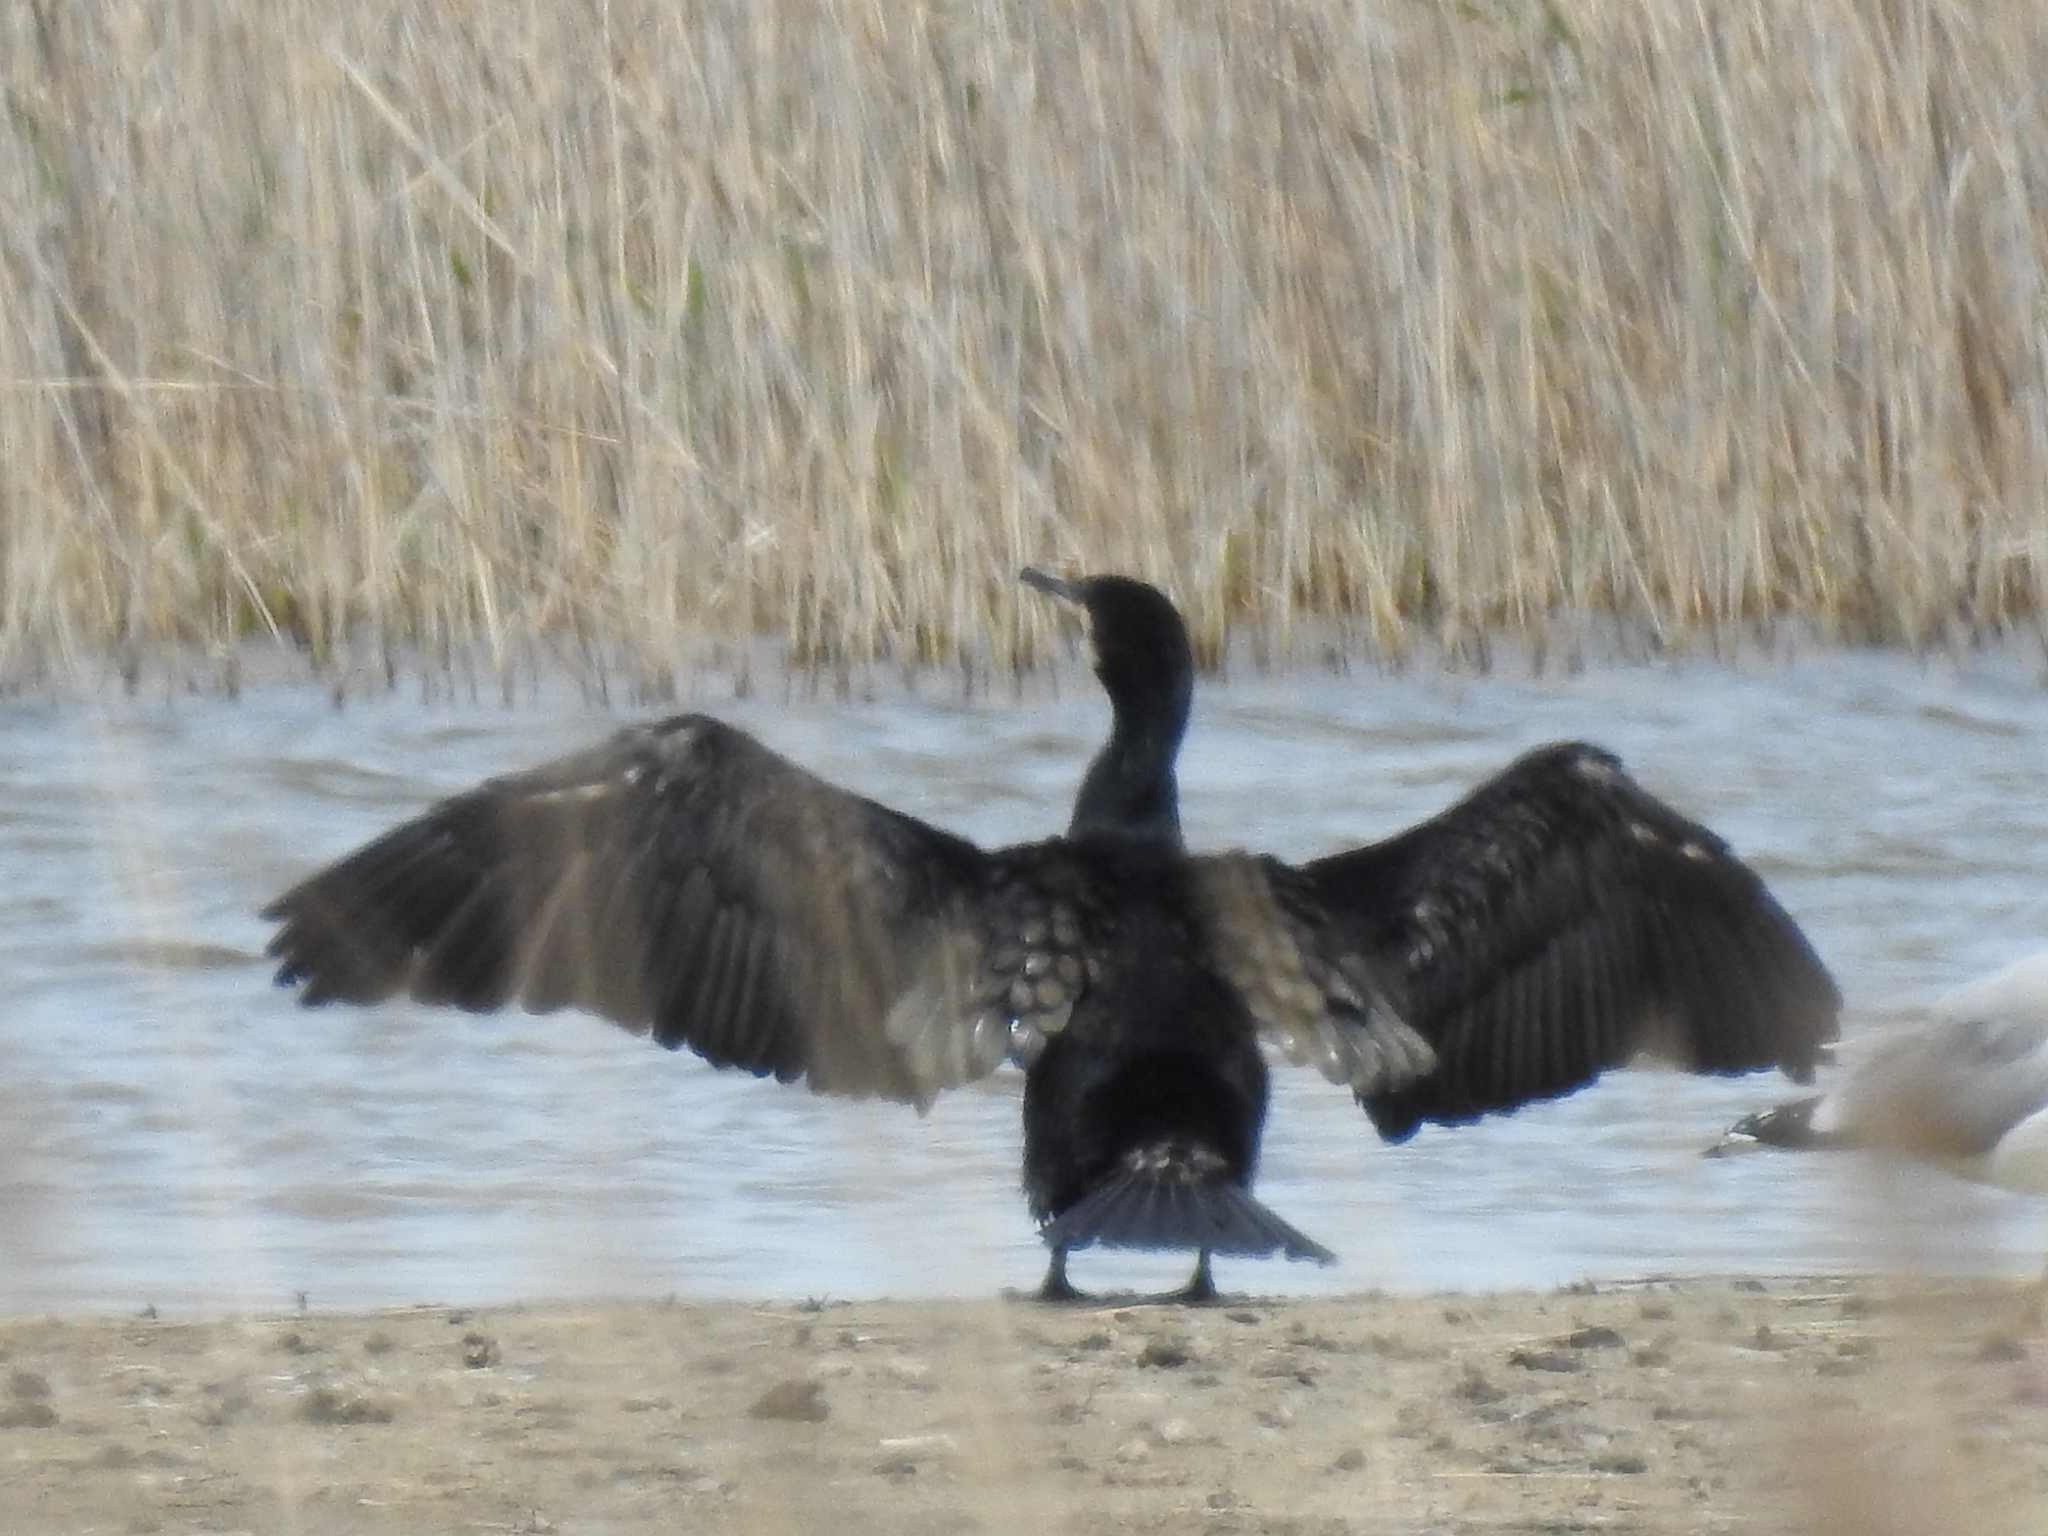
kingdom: Animalia
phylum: Chordata
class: Aves
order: Suliformes
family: Phalacrocoracidae
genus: Phalacrocorax
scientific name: Phalacrocorax carbo
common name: Great cormorant
